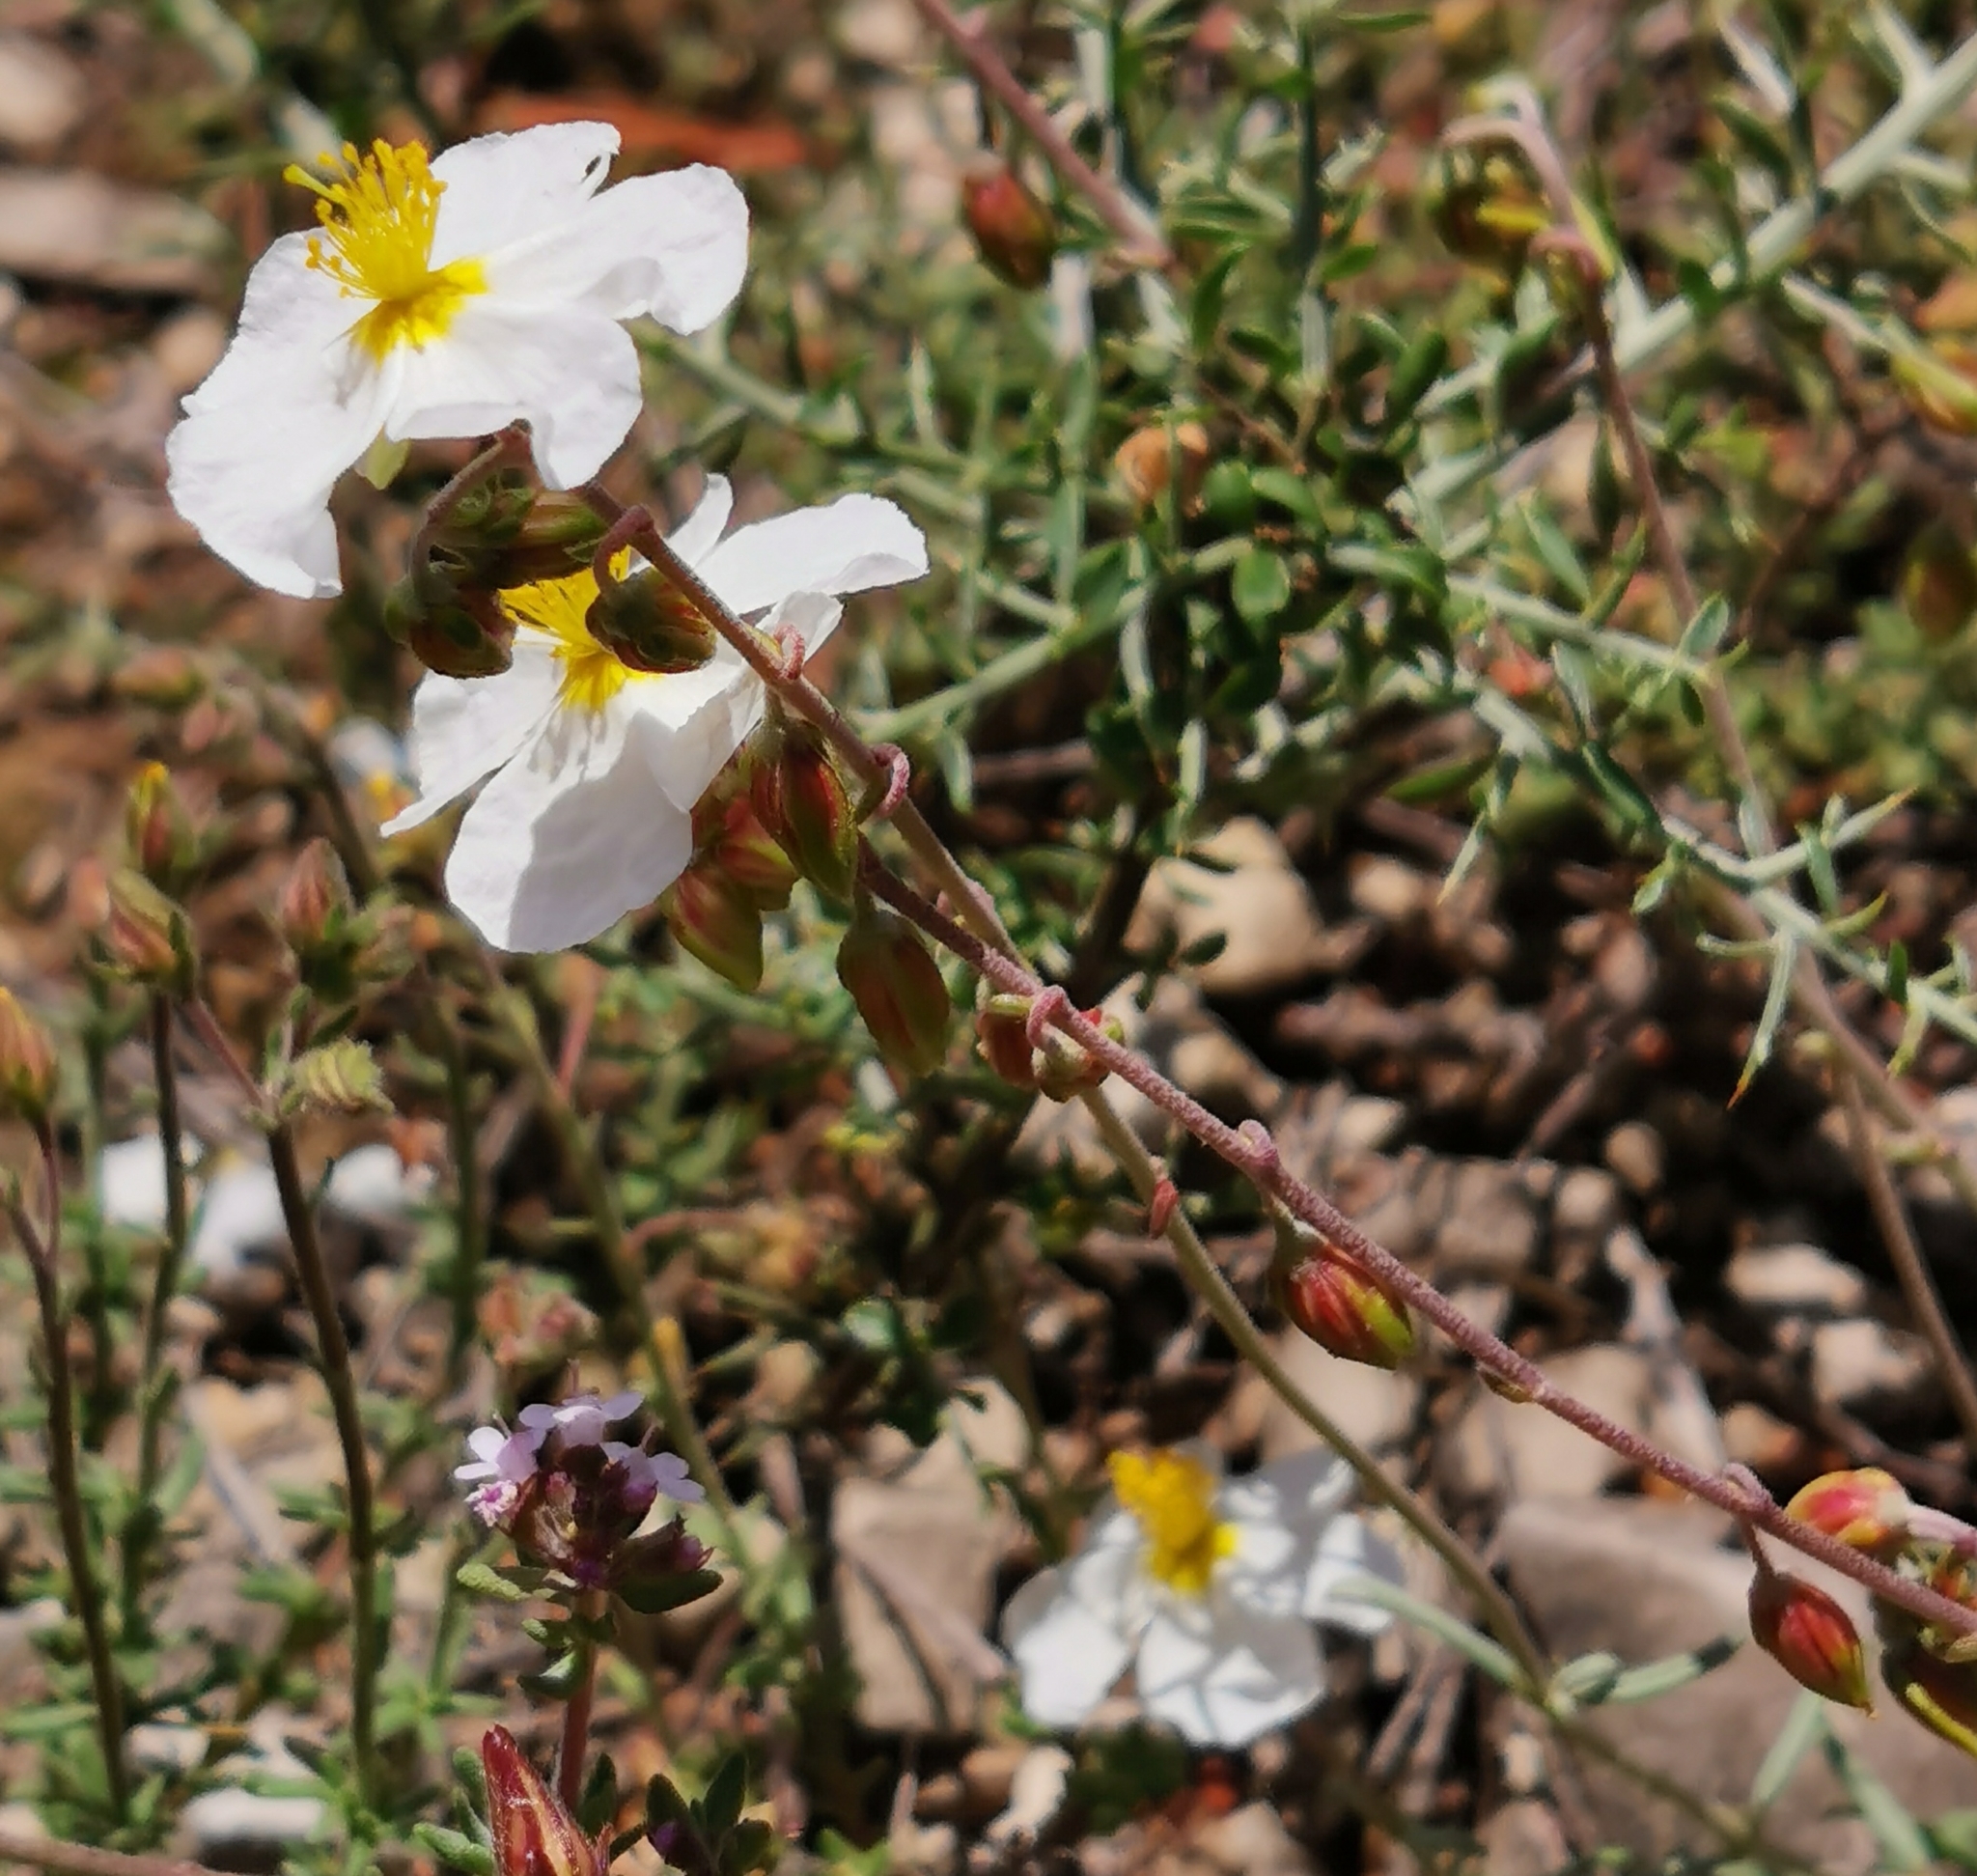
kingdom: Plantae
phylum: Tracheophyta
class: Magnoliopsida
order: Malvales
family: Cistaceae
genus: Helianthemum
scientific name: Helianthemum apenninum
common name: White rock-rose
